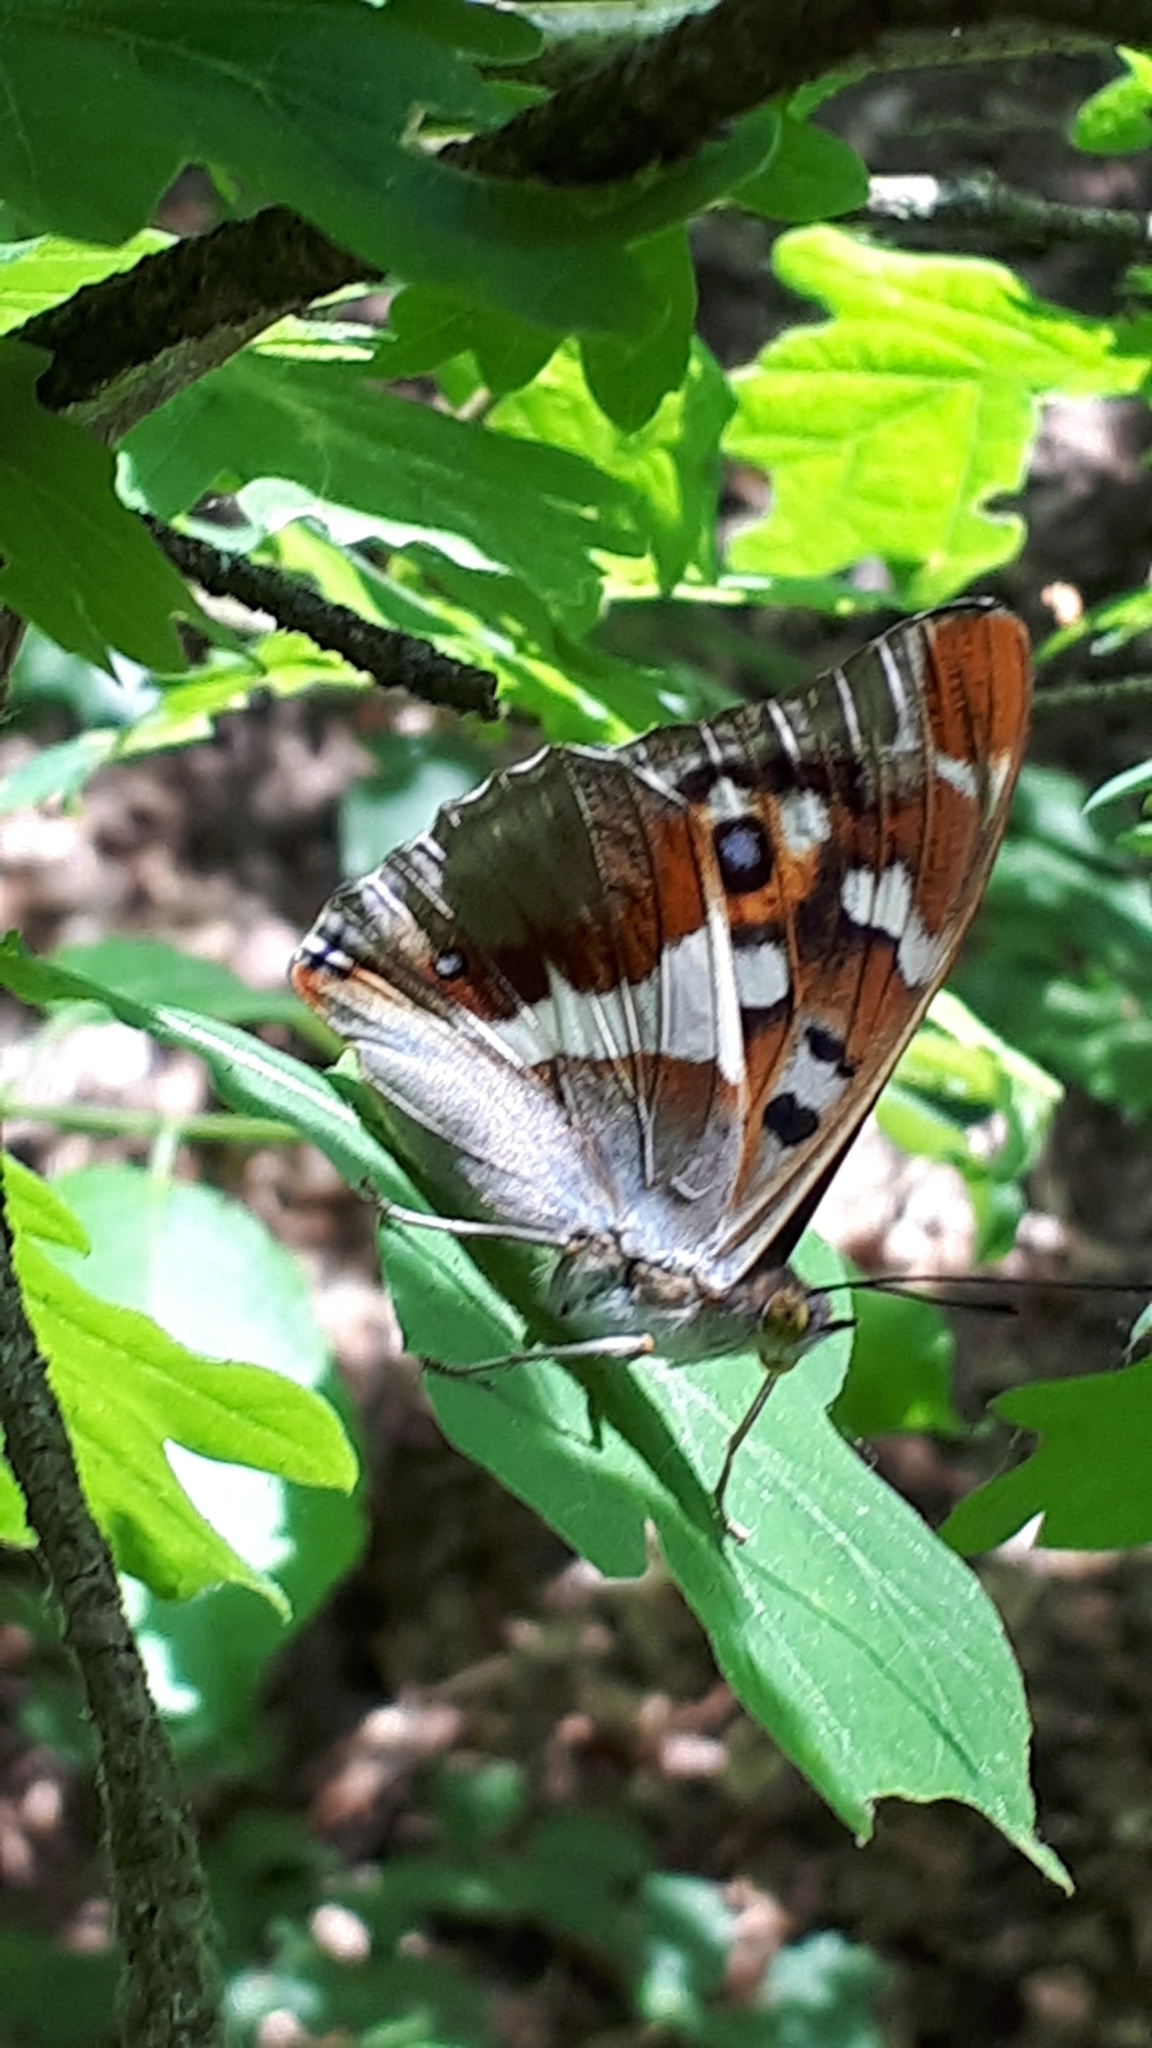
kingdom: Animalia
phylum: Arthropoda
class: Insecta
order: Lepidoptera
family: Nymphalidae
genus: Apatura
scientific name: Apatura iris
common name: Purple emperor
